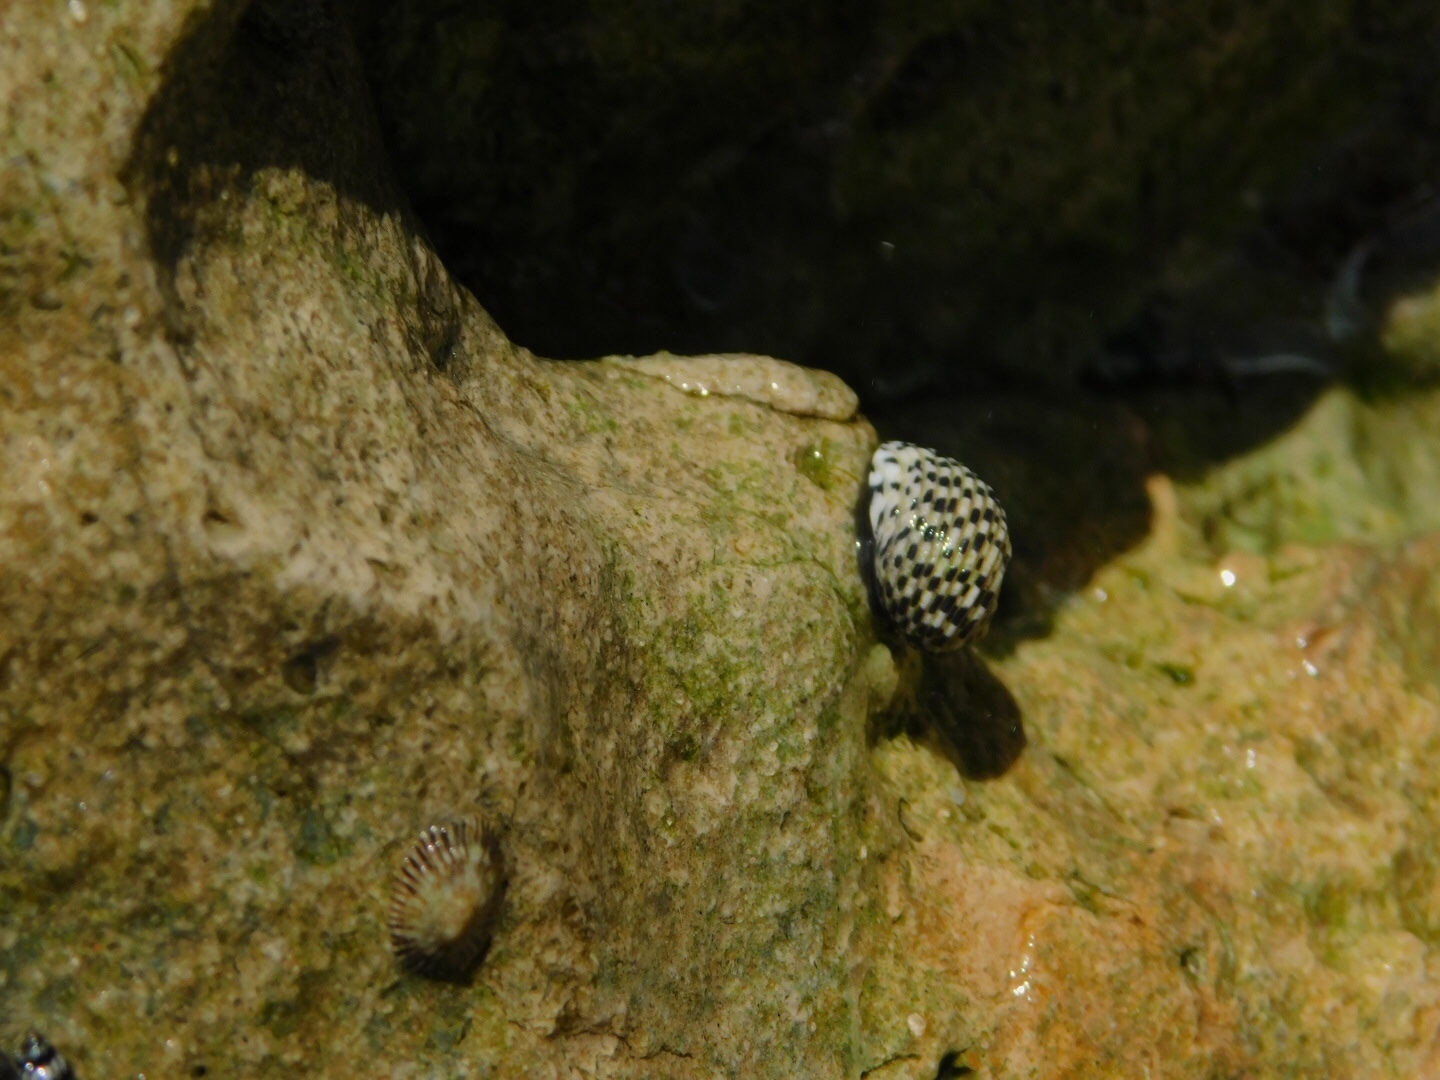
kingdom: Animalia
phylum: Mollusca
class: Gastropoda
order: Cycloneritida
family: Neritidae
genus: Nerita
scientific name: Nerita tessellata
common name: Checkered nerite
